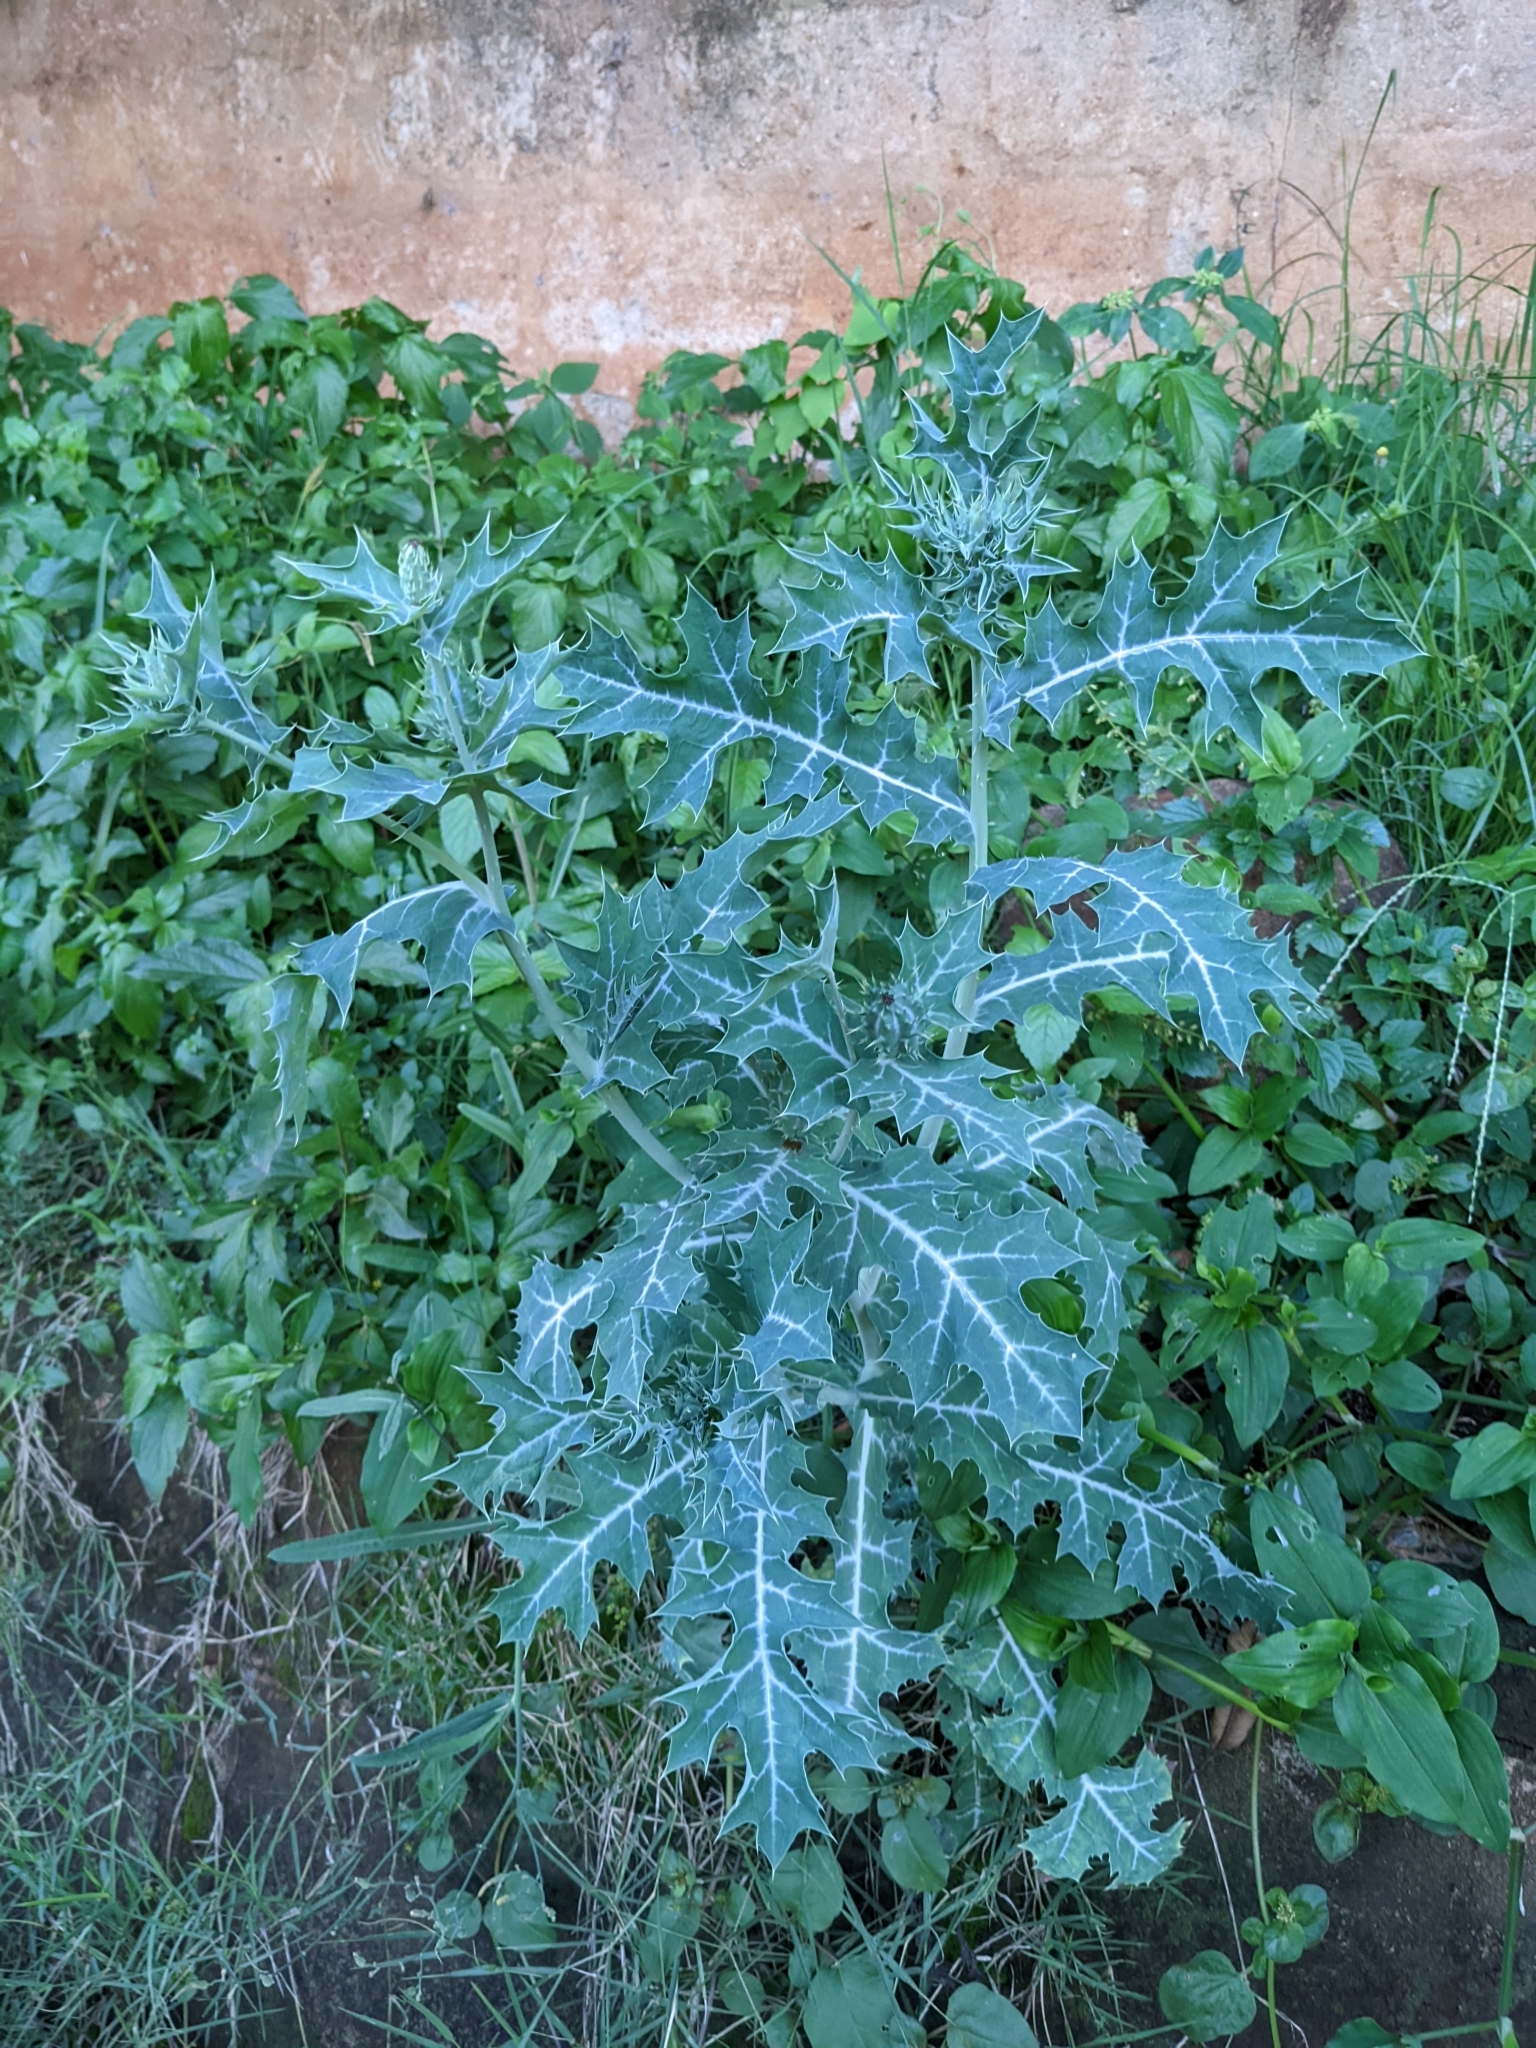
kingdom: Plantae
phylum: Tracheophyta
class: Magnoliopsida
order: Ranunculales
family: Papaveraceae
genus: Argemone
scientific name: Argemone mexicana
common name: Mexican poppy
